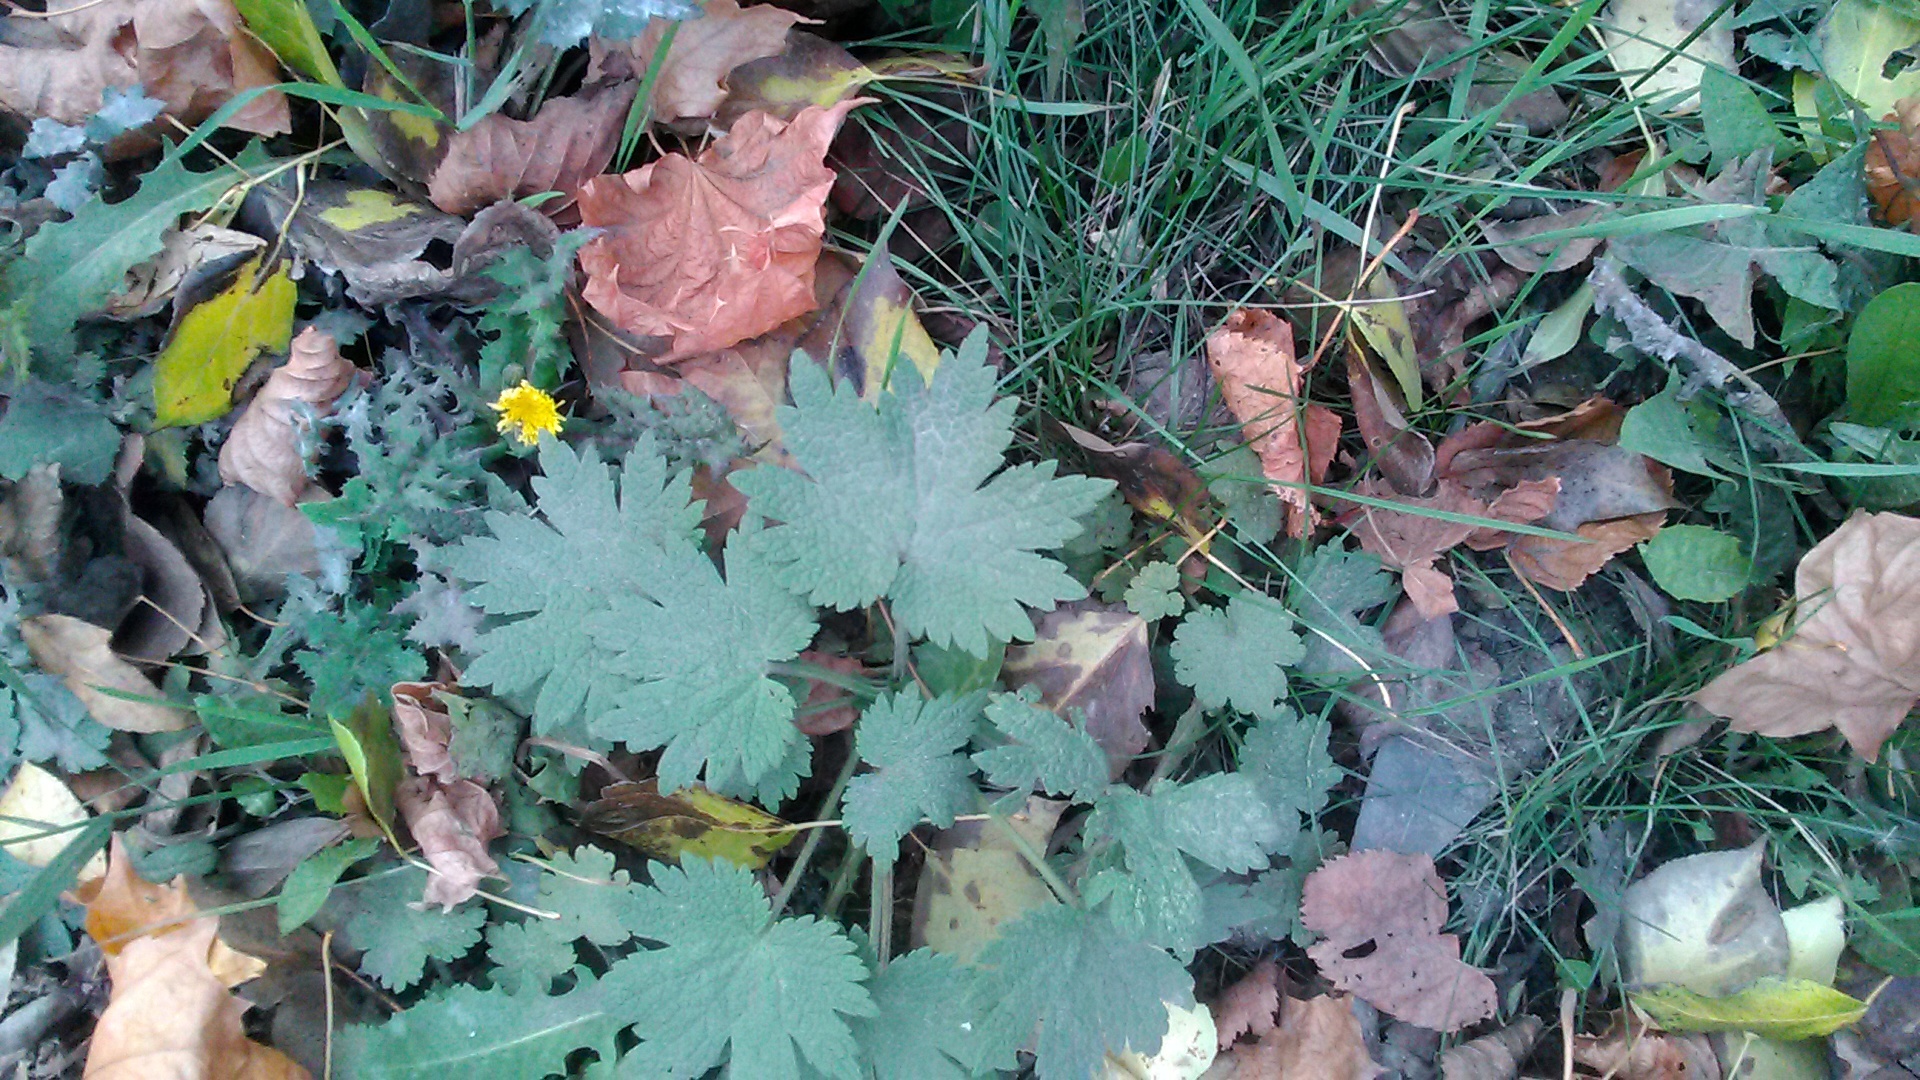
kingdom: Plantae
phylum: Tracheophyta
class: Magnoliopsida
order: Lamiales
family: Lamiaceae
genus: Leonurus
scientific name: Leonurus quinquelobatus
